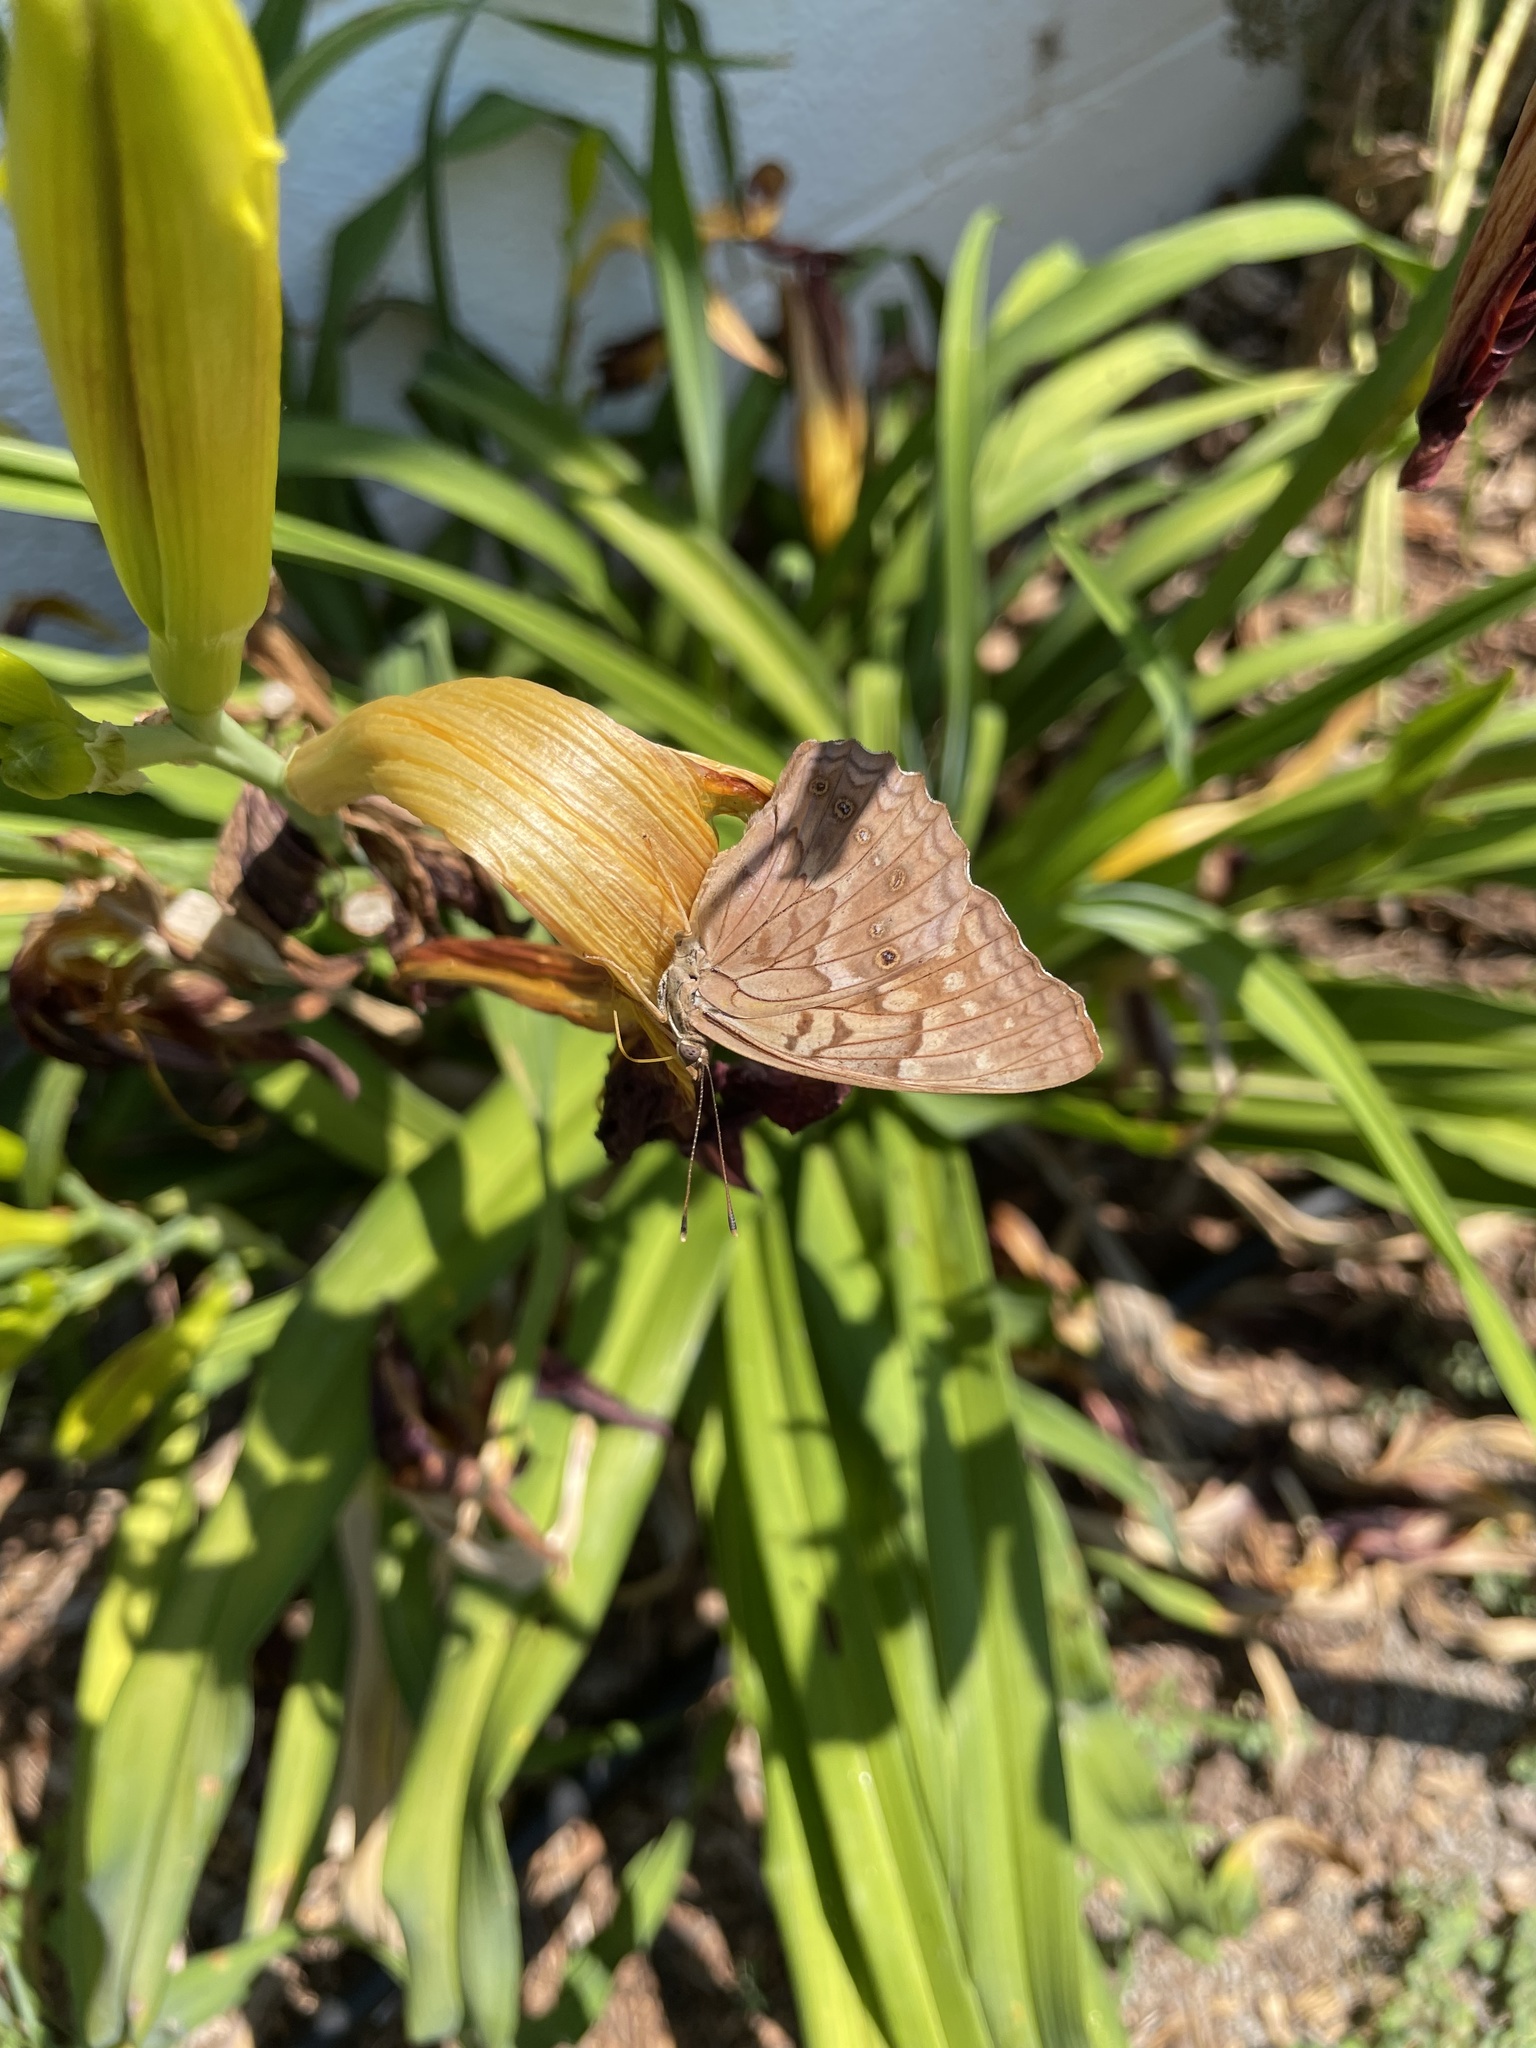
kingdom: Animalia
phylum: Arthropoda
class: Insecta
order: Lepidoptera
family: Nymphalidae
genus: Asterocampa
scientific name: Asterocampa clyton
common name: Tawny emperor
